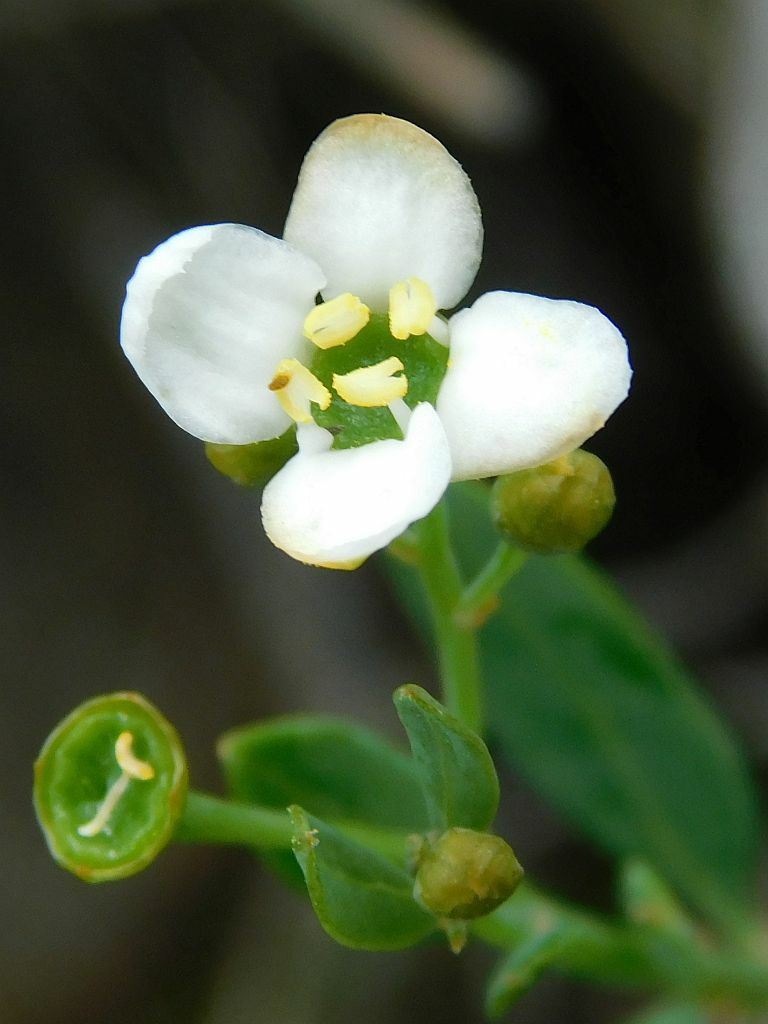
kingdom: Plantae
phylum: Tracheophyta
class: Magnoliopsida
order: Solanales
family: Montiniaceae
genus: Montinia
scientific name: Montinia caryophyllacea
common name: Wild clove-bush
